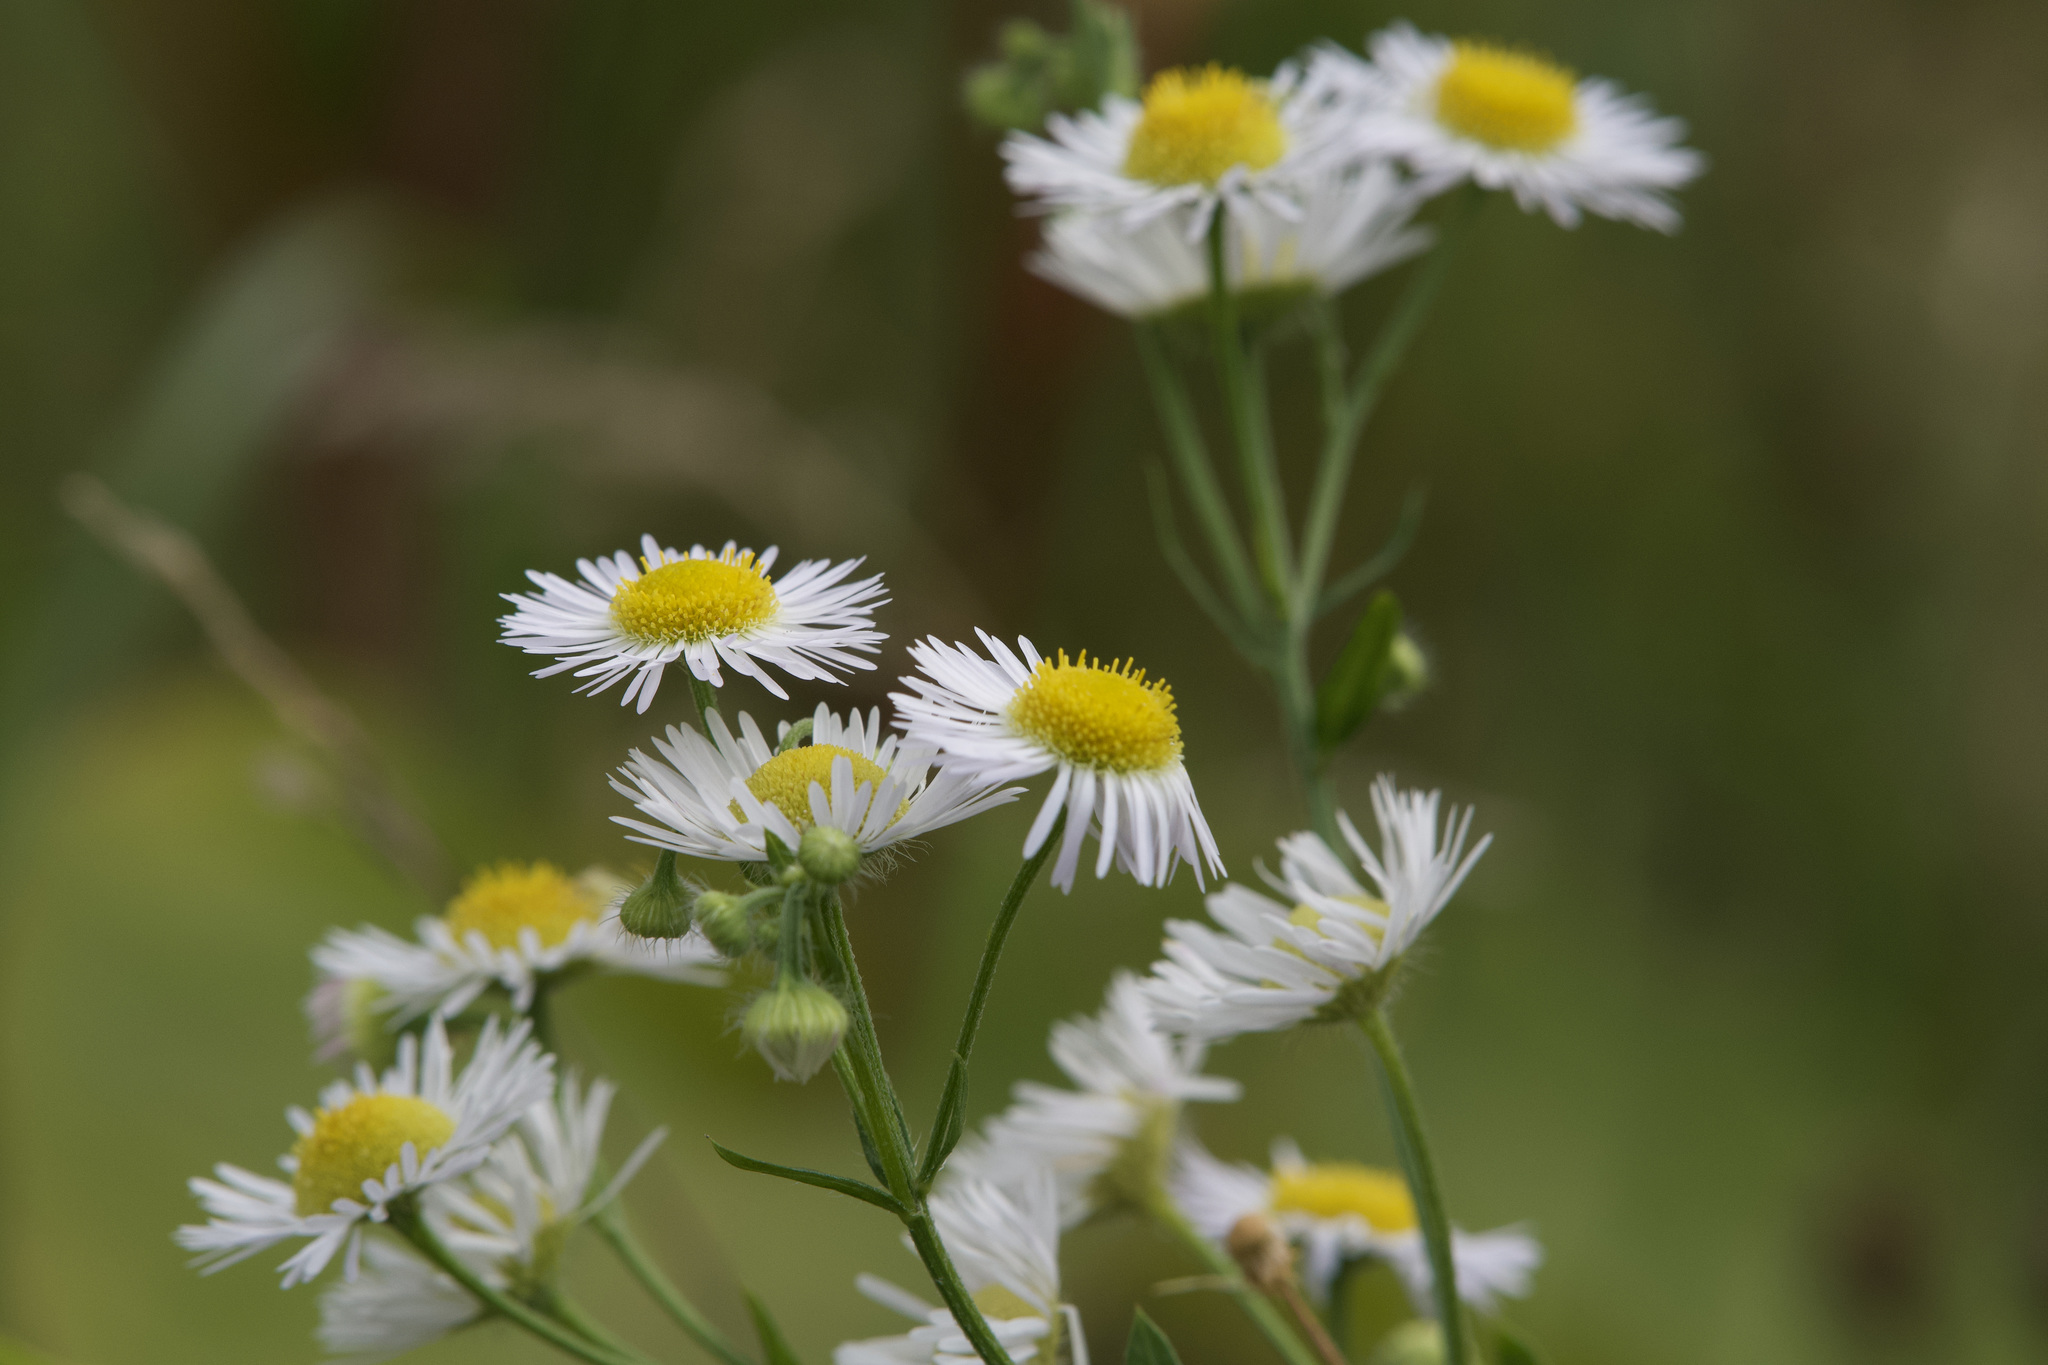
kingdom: Plantae
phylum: Tracheophyta
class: Magnoliopsida
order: Asterales
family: Asteraceae
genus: Erigeron
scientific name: Erigeron annuus
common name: Tall fleabane
